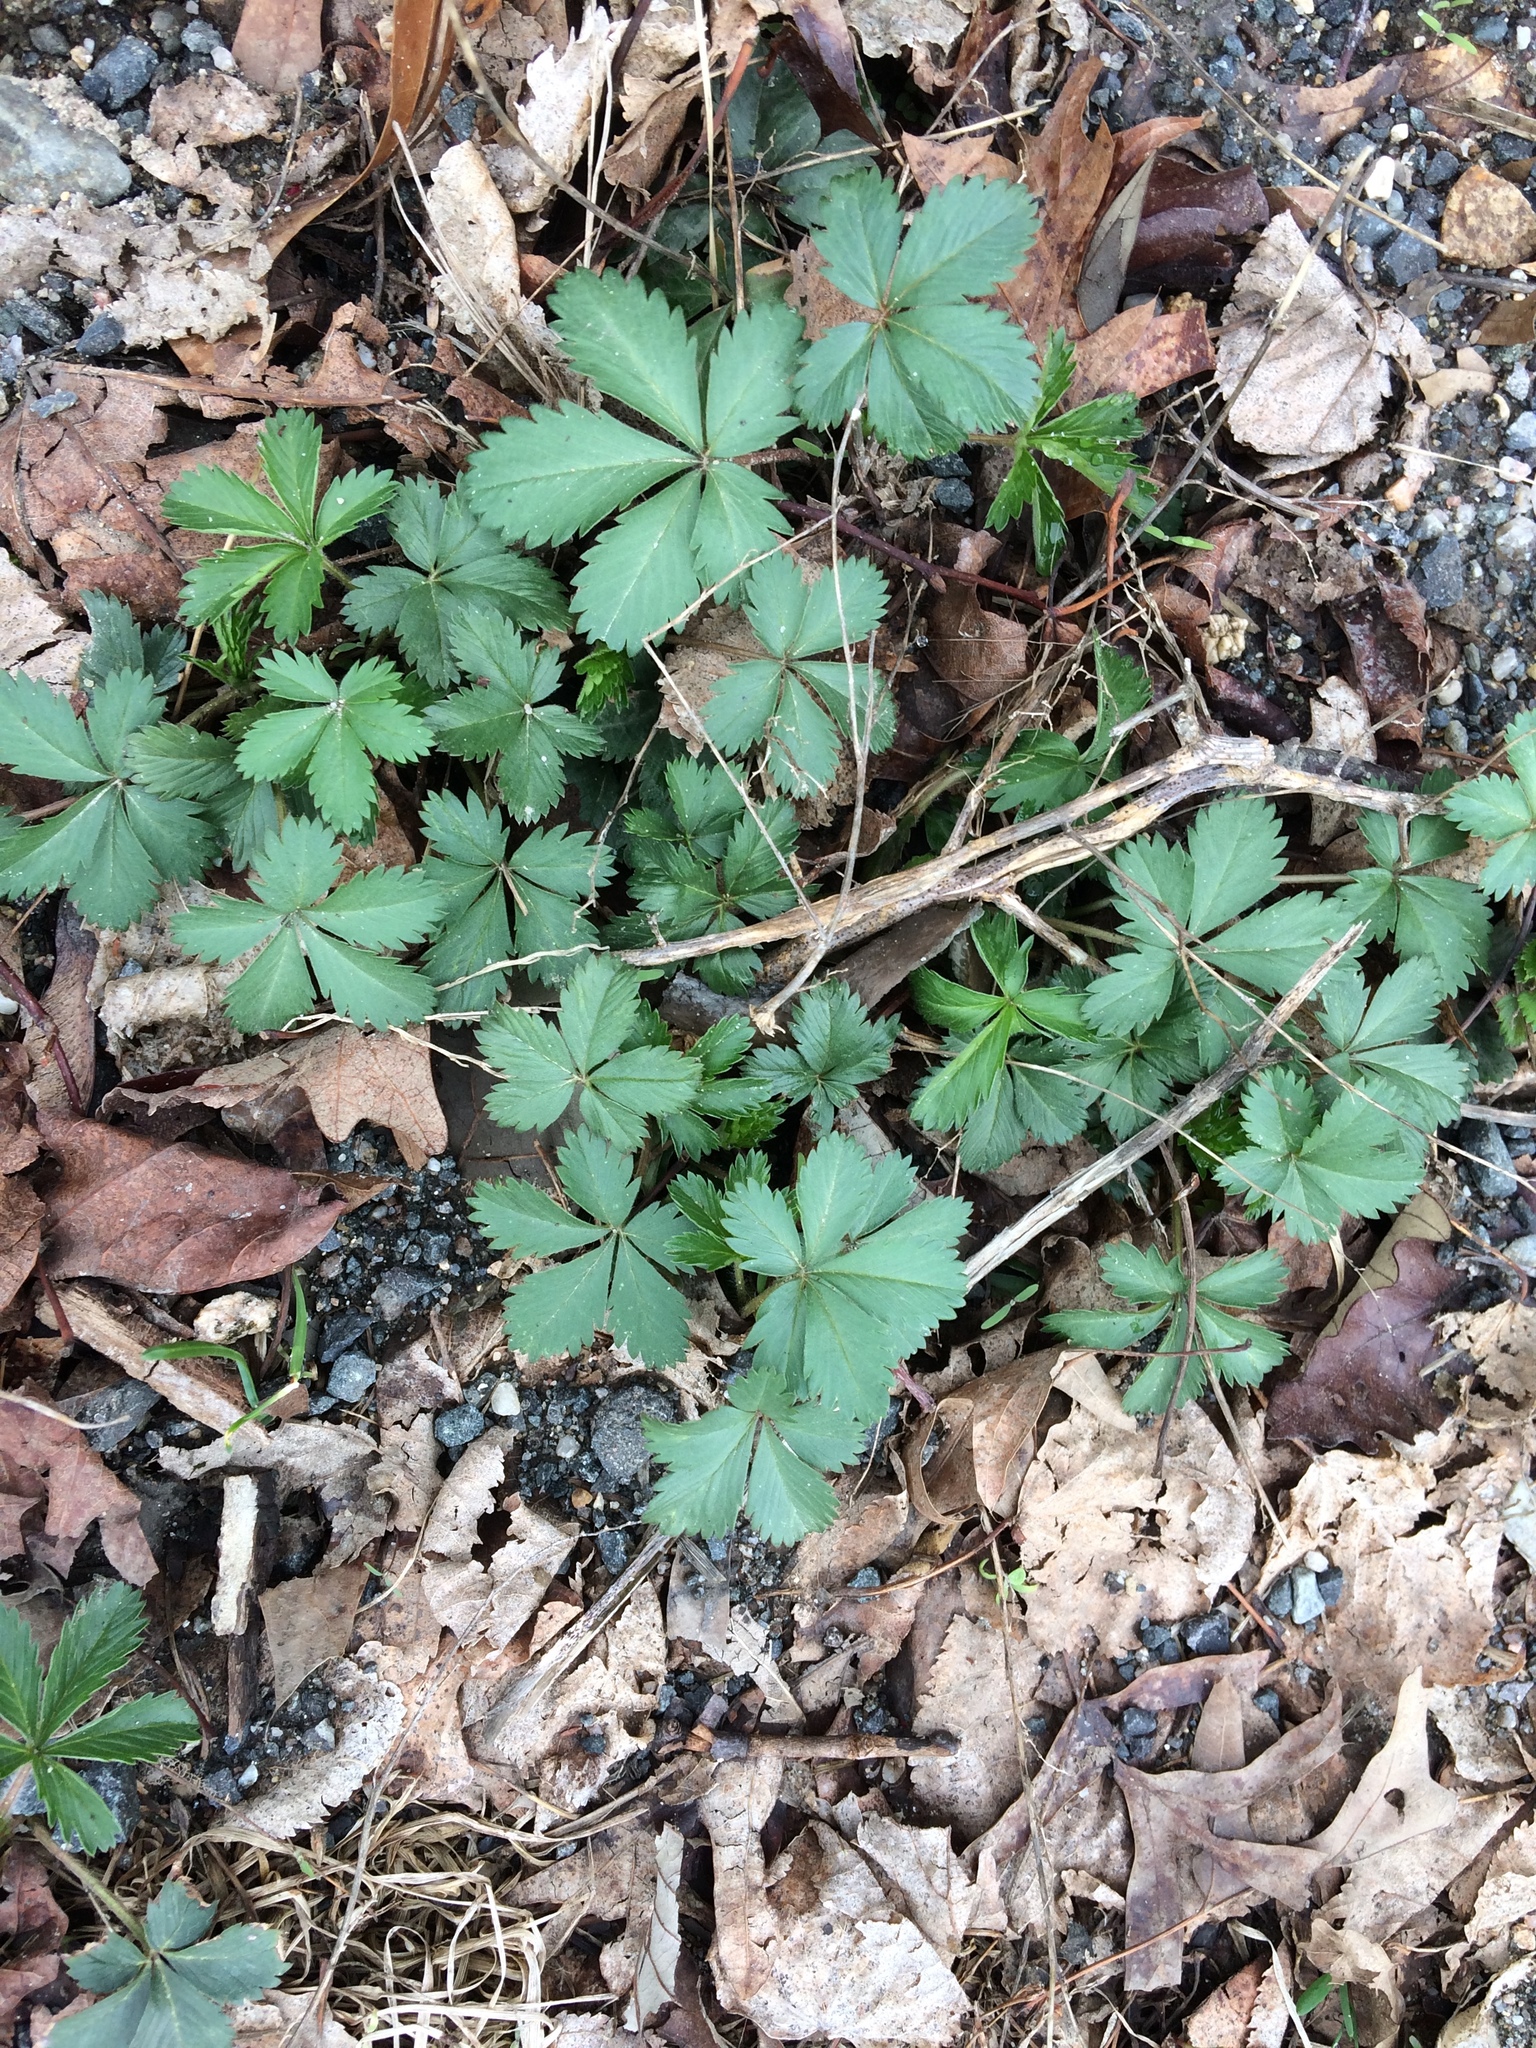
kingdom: Plantae
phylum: Tracheophyta
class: Magnoliopsida
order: Rosales
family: Rosaceae
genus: Potentilla
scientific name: Potentilla canadensis
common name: Canada cinquefoil
